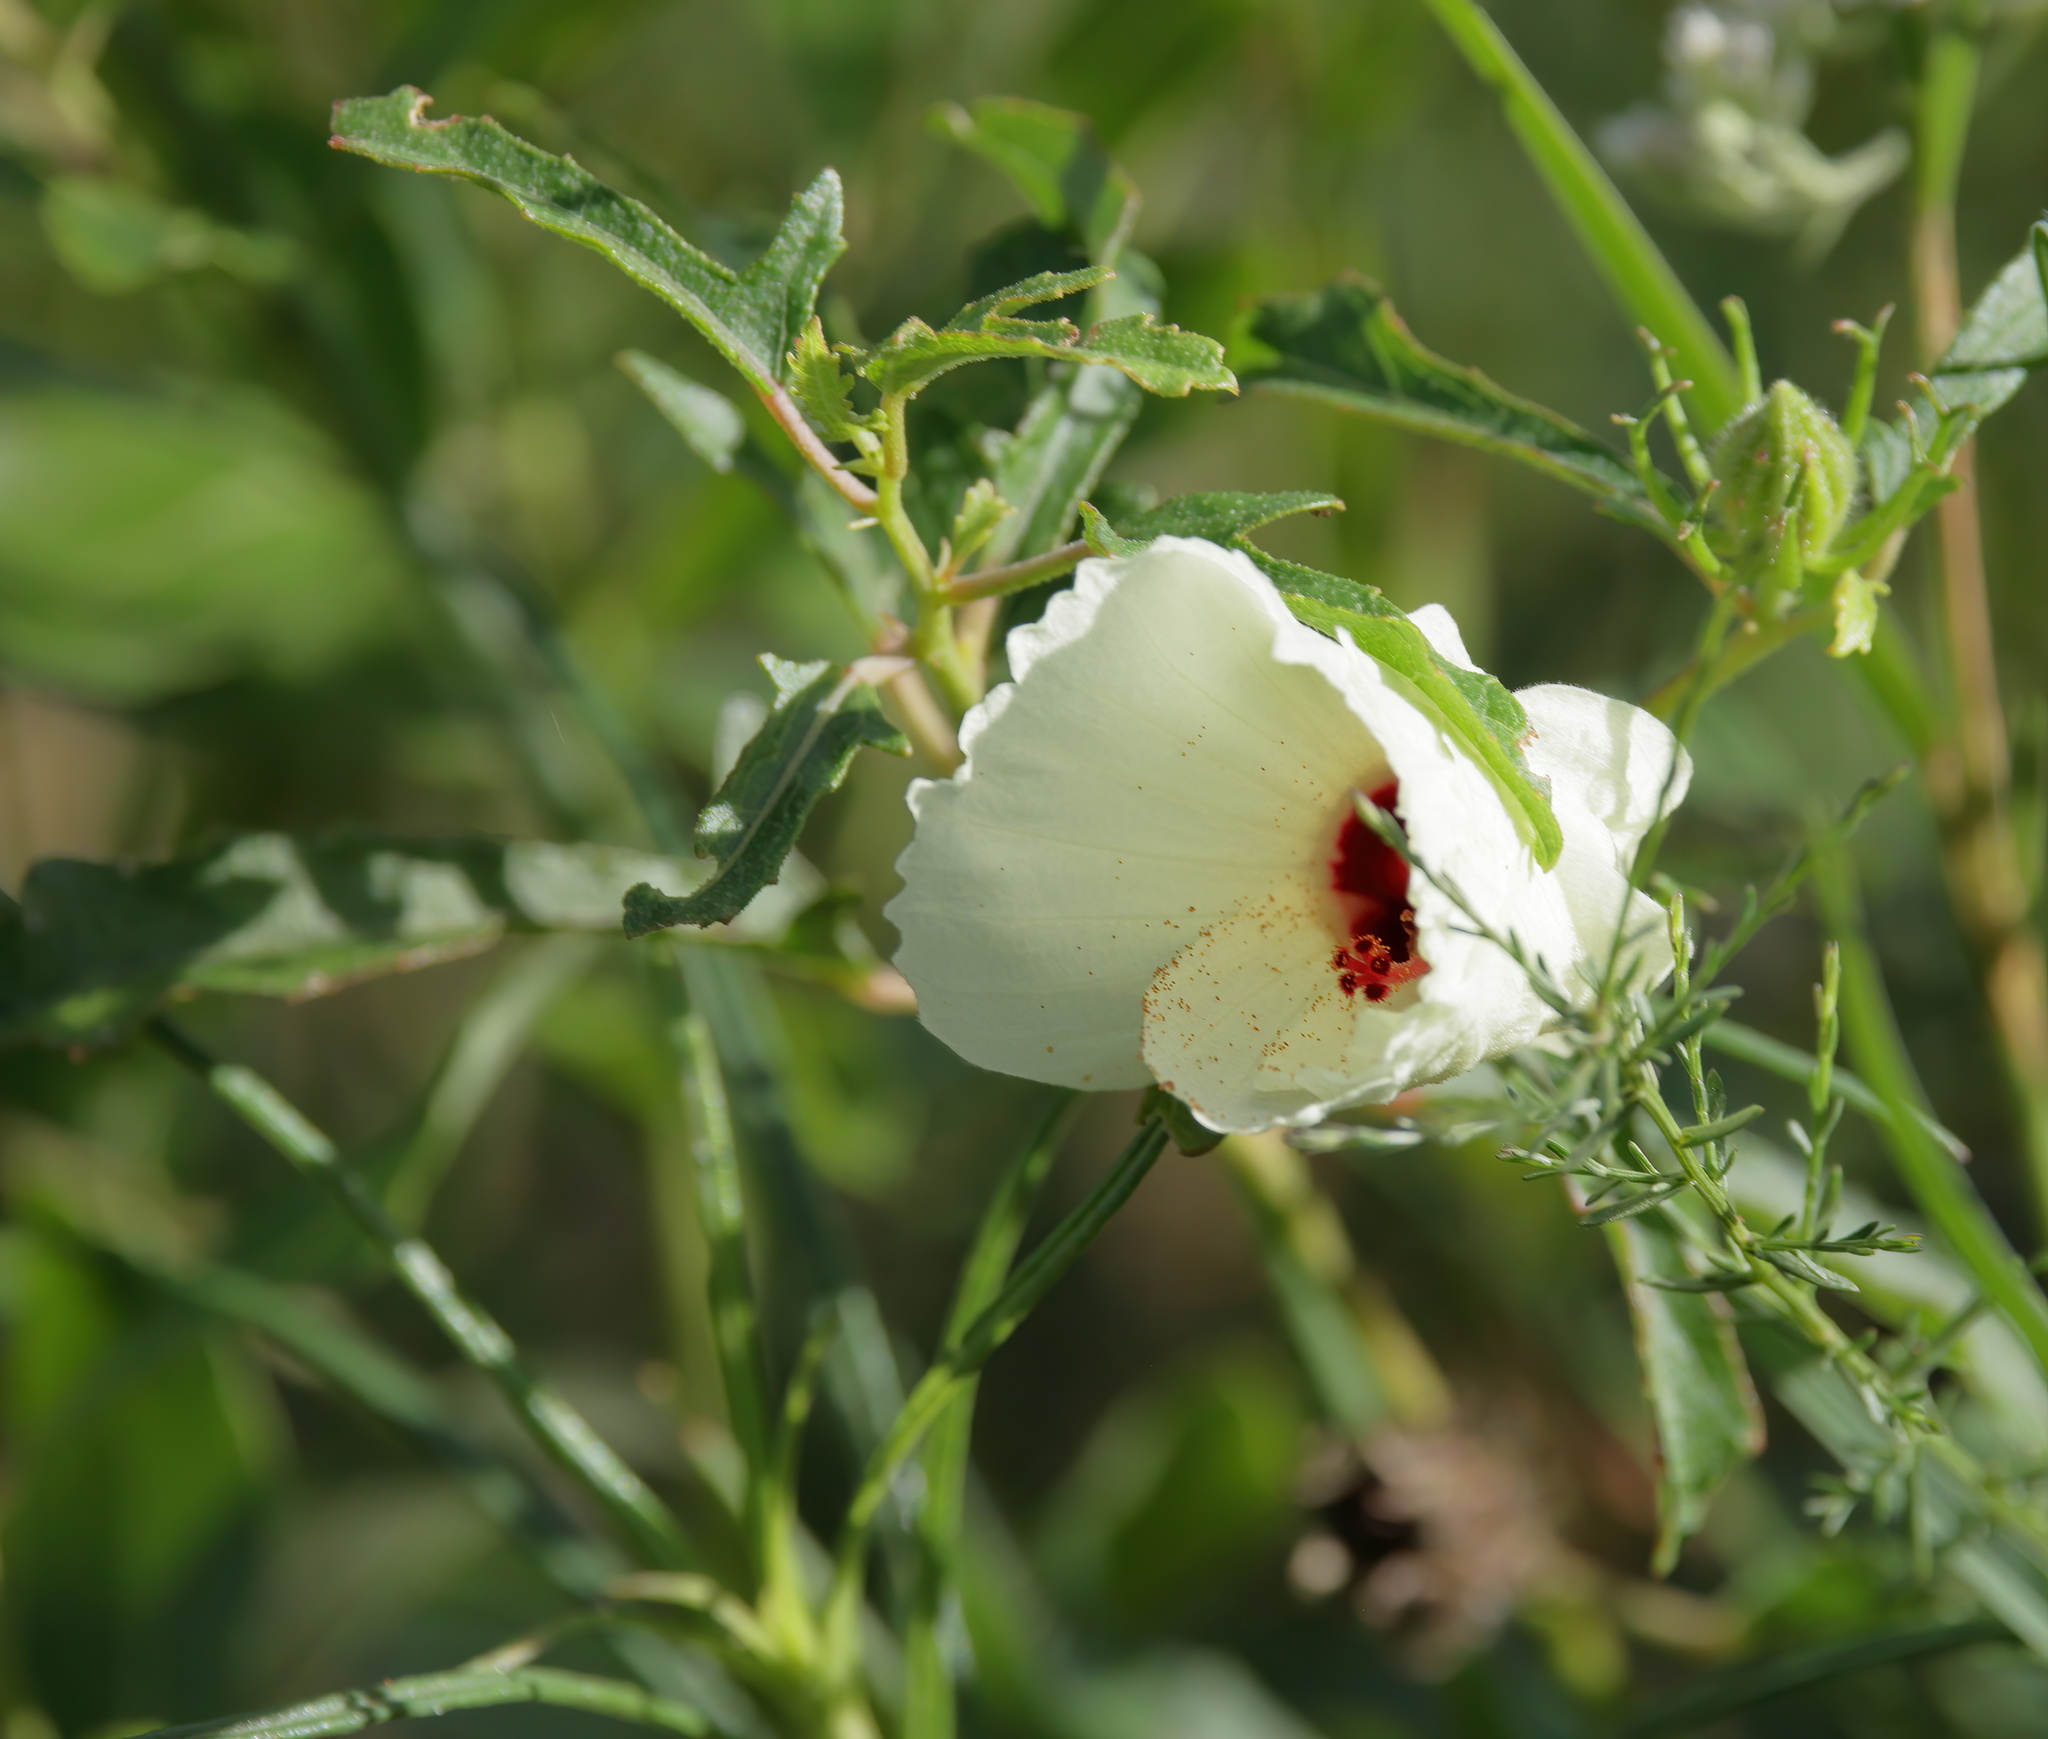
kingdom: Plantae
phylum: Tracheophyta
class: Magnoliopsida
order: Malvales
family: Malvaceae
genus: Hibiscus
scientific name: Hibiscus aculeatus
